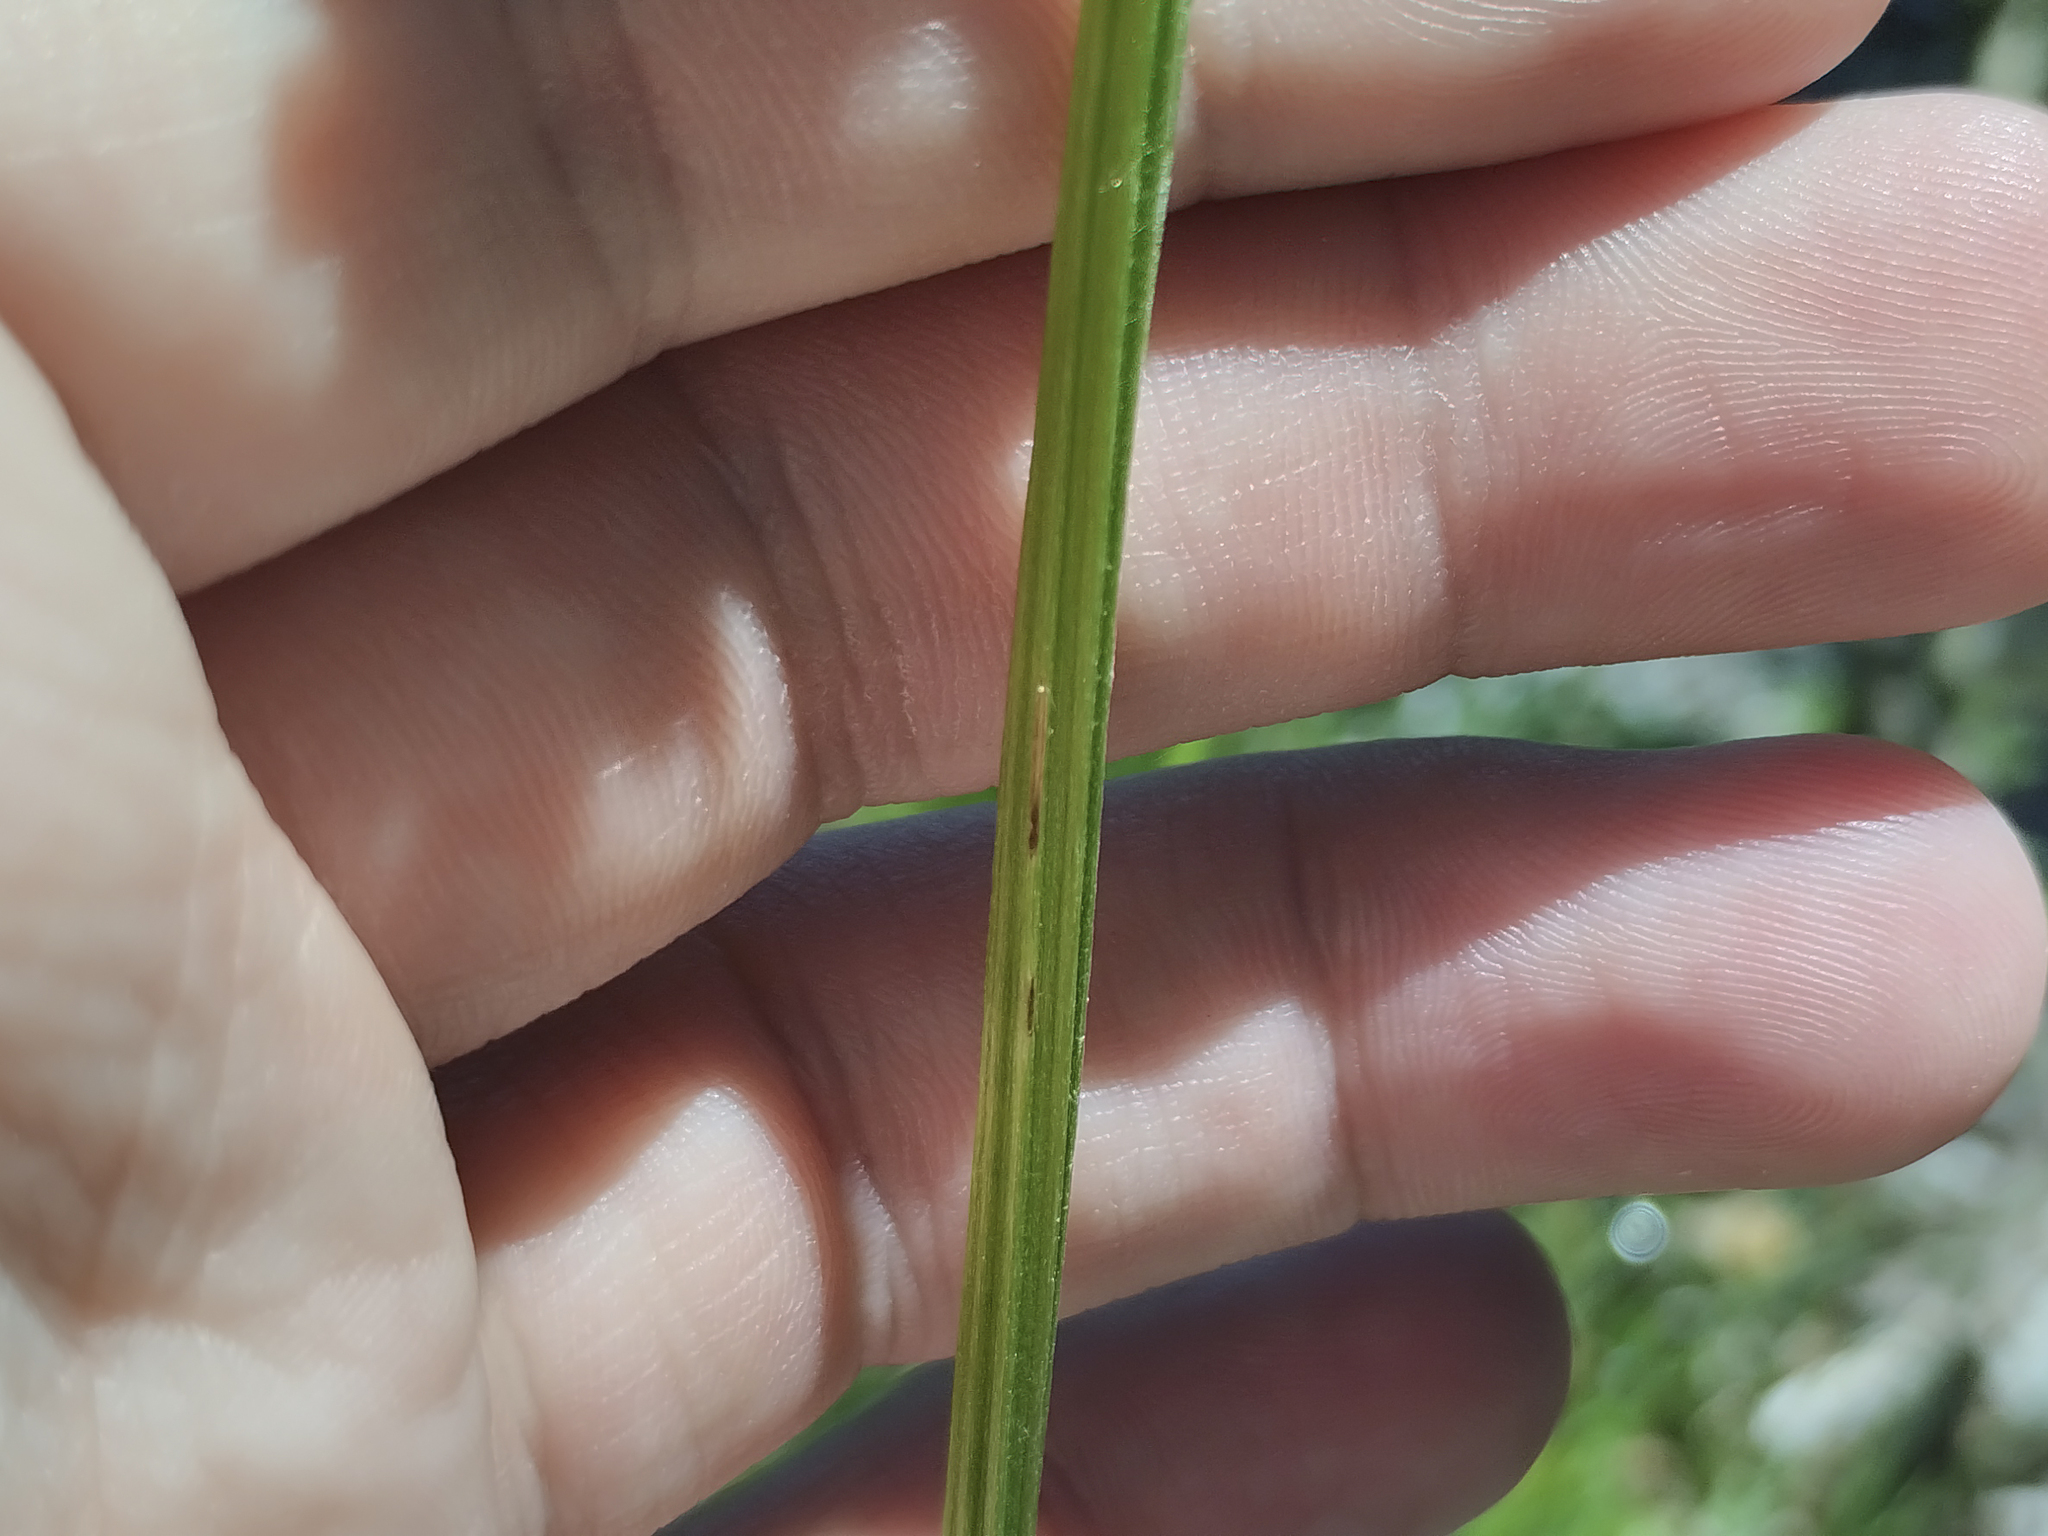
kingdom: Plantae
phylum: Tracheophyta
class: Magnoliopsida
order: Ranunculales
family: Ranunculaceae
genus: Caltha
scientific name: Caltha palustris
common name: Marsh marigold
